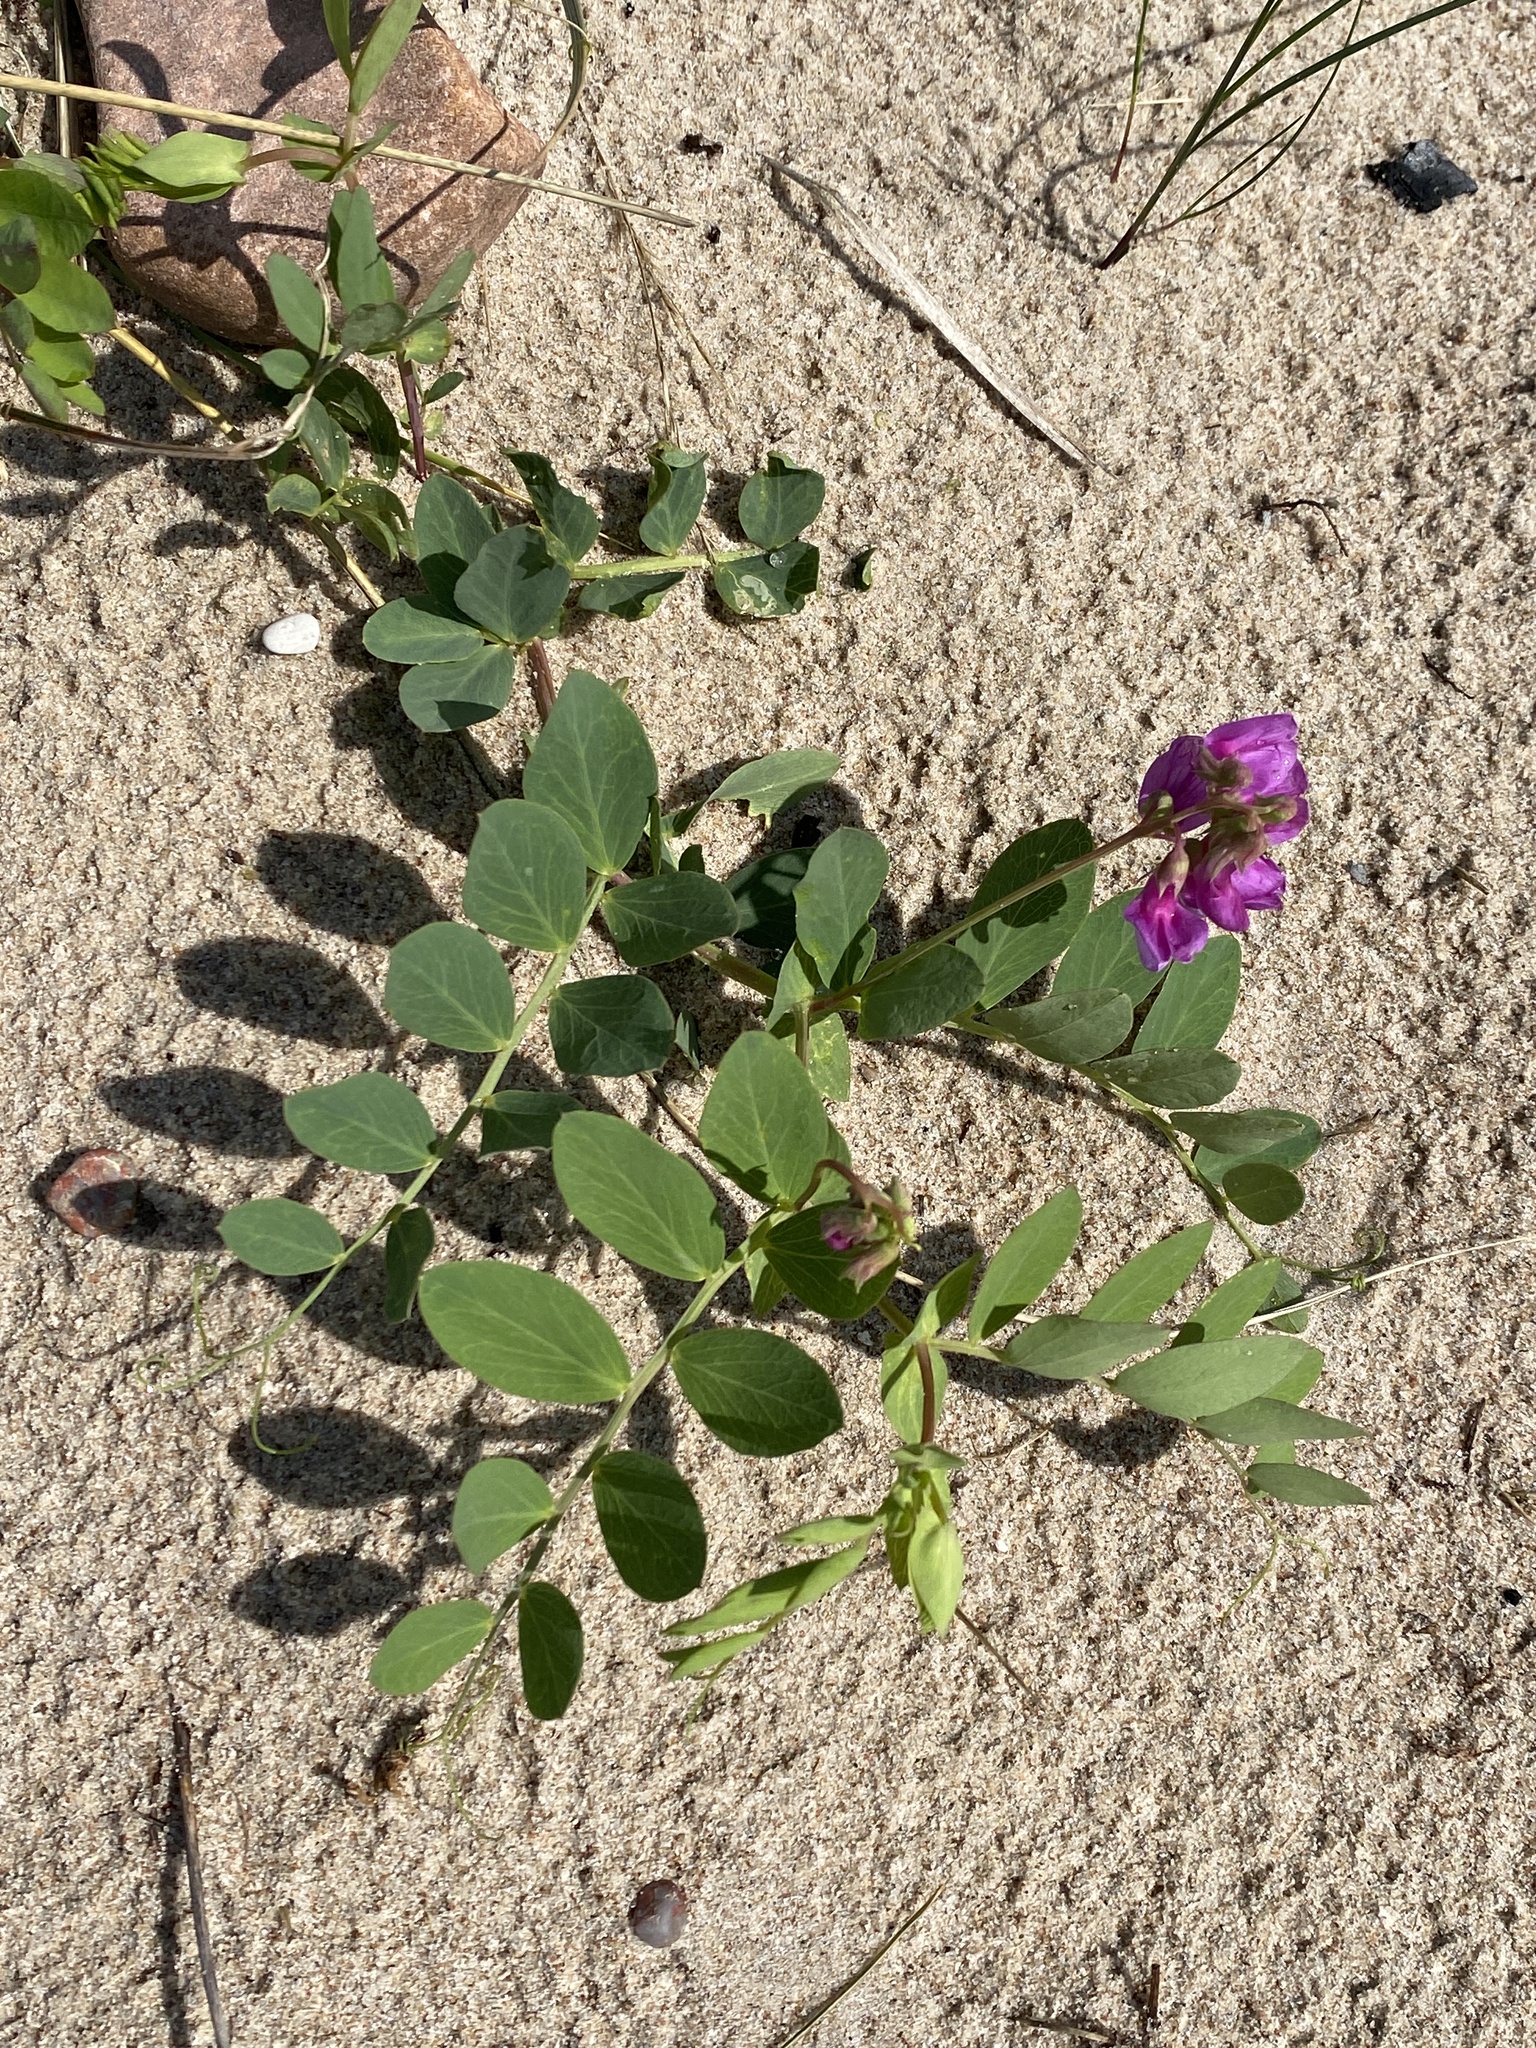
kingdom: Plantae
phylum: Tracheophyta
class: Magnoliopsida
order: Fabales
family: Fabaceae
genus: Lathyrus
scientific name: Lathyrus japonicus
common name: Sea pea
